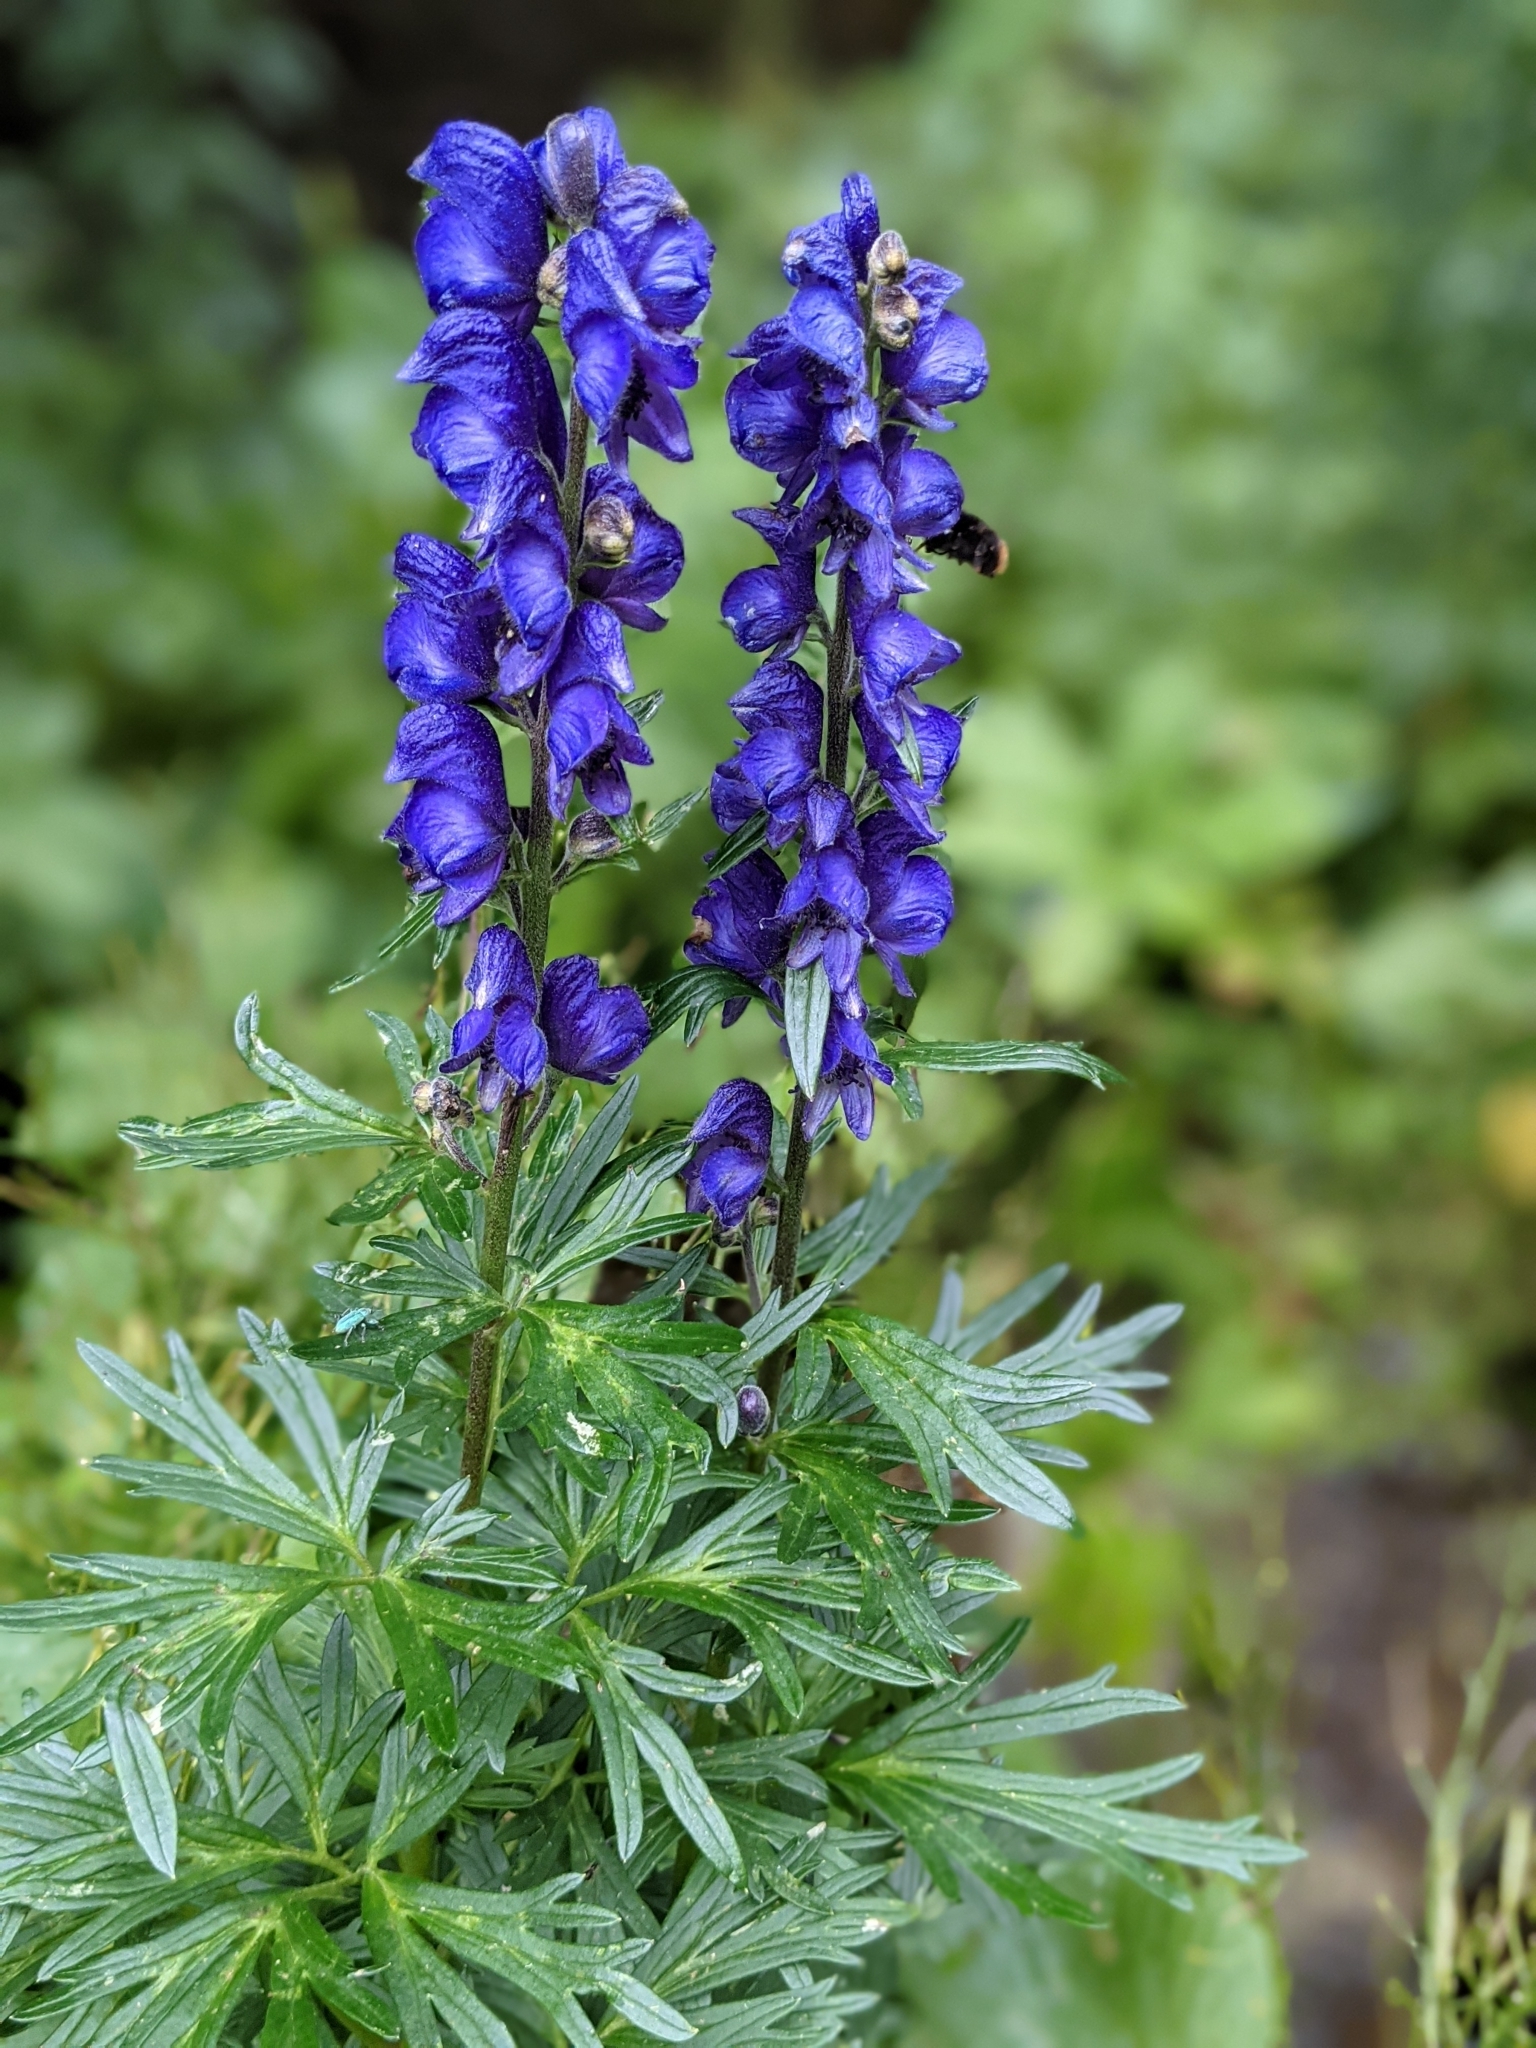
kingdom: Plantae
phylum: Tracheophyta
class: Magnoliopsida
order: Ranunculales
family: Ranunculaceae
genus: Aconitum
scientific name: Aconitum napellus
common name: Garden monkshood
